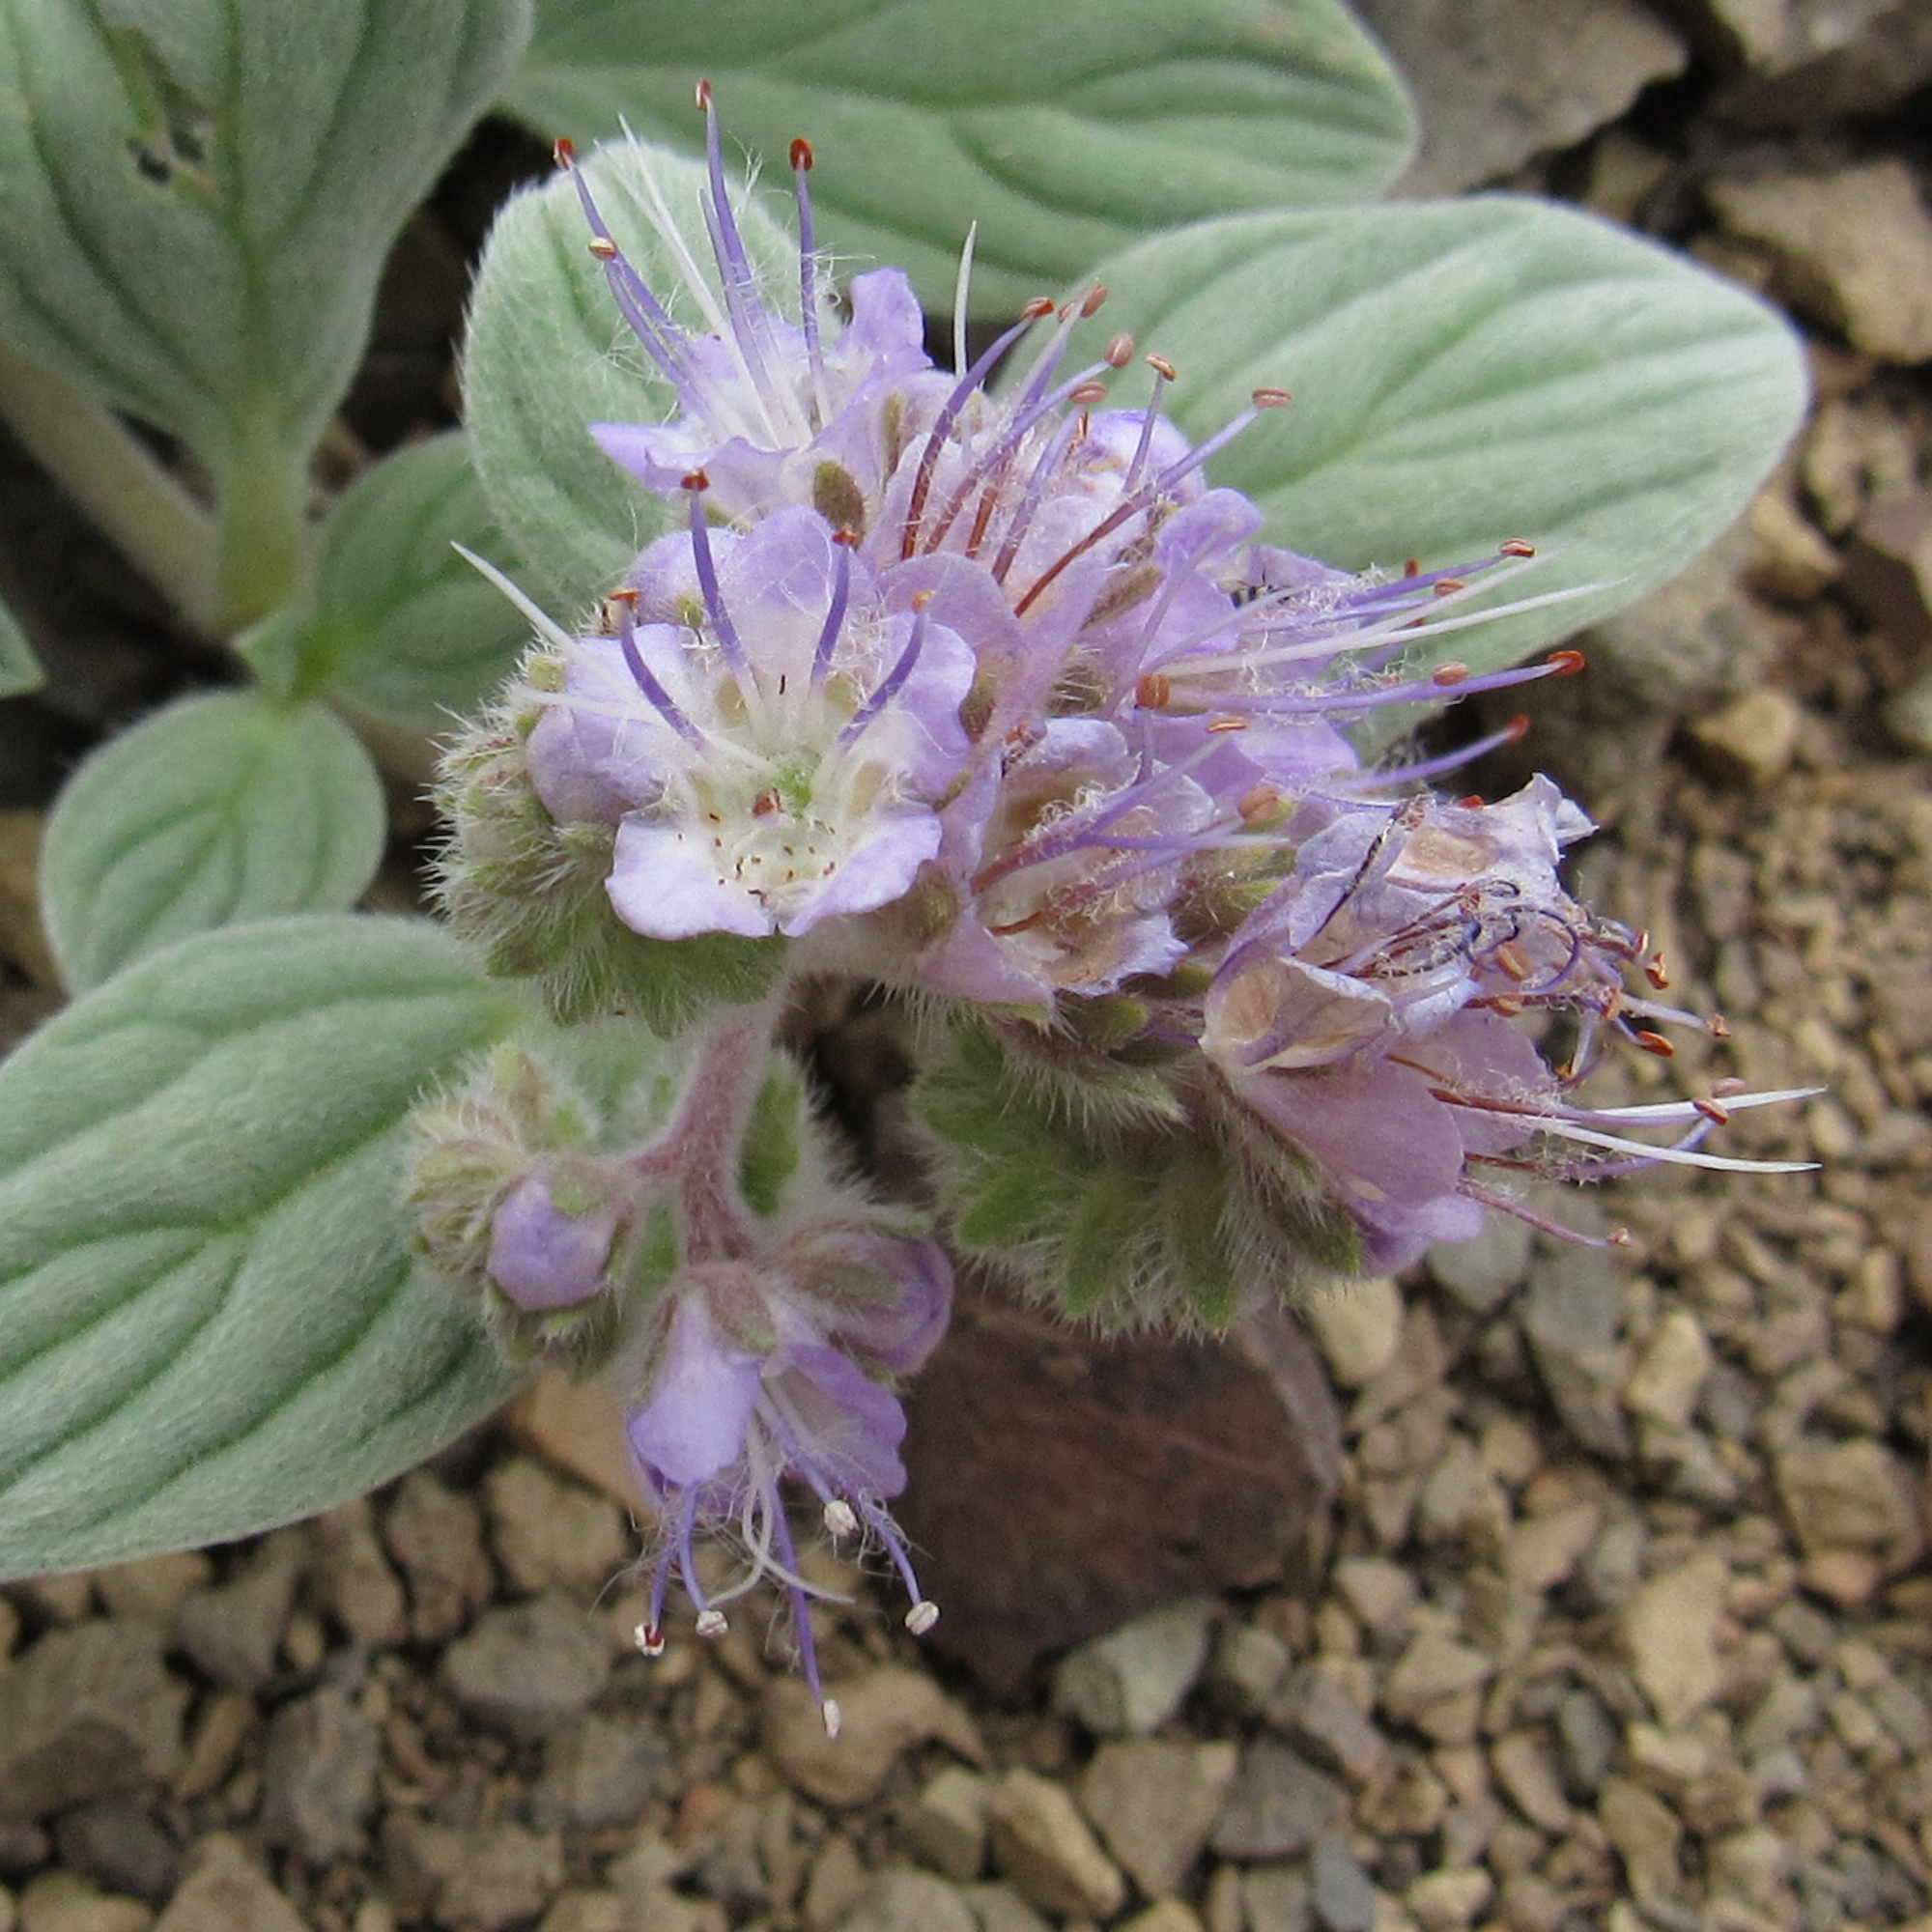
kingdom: Plantae
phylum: Tracheophyta
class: Magnoliopsida
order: Boraginales
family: Hydrophyllaceae
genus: Phacelia
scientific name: Phacelia hastata
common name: Silver-leaved phacelia
